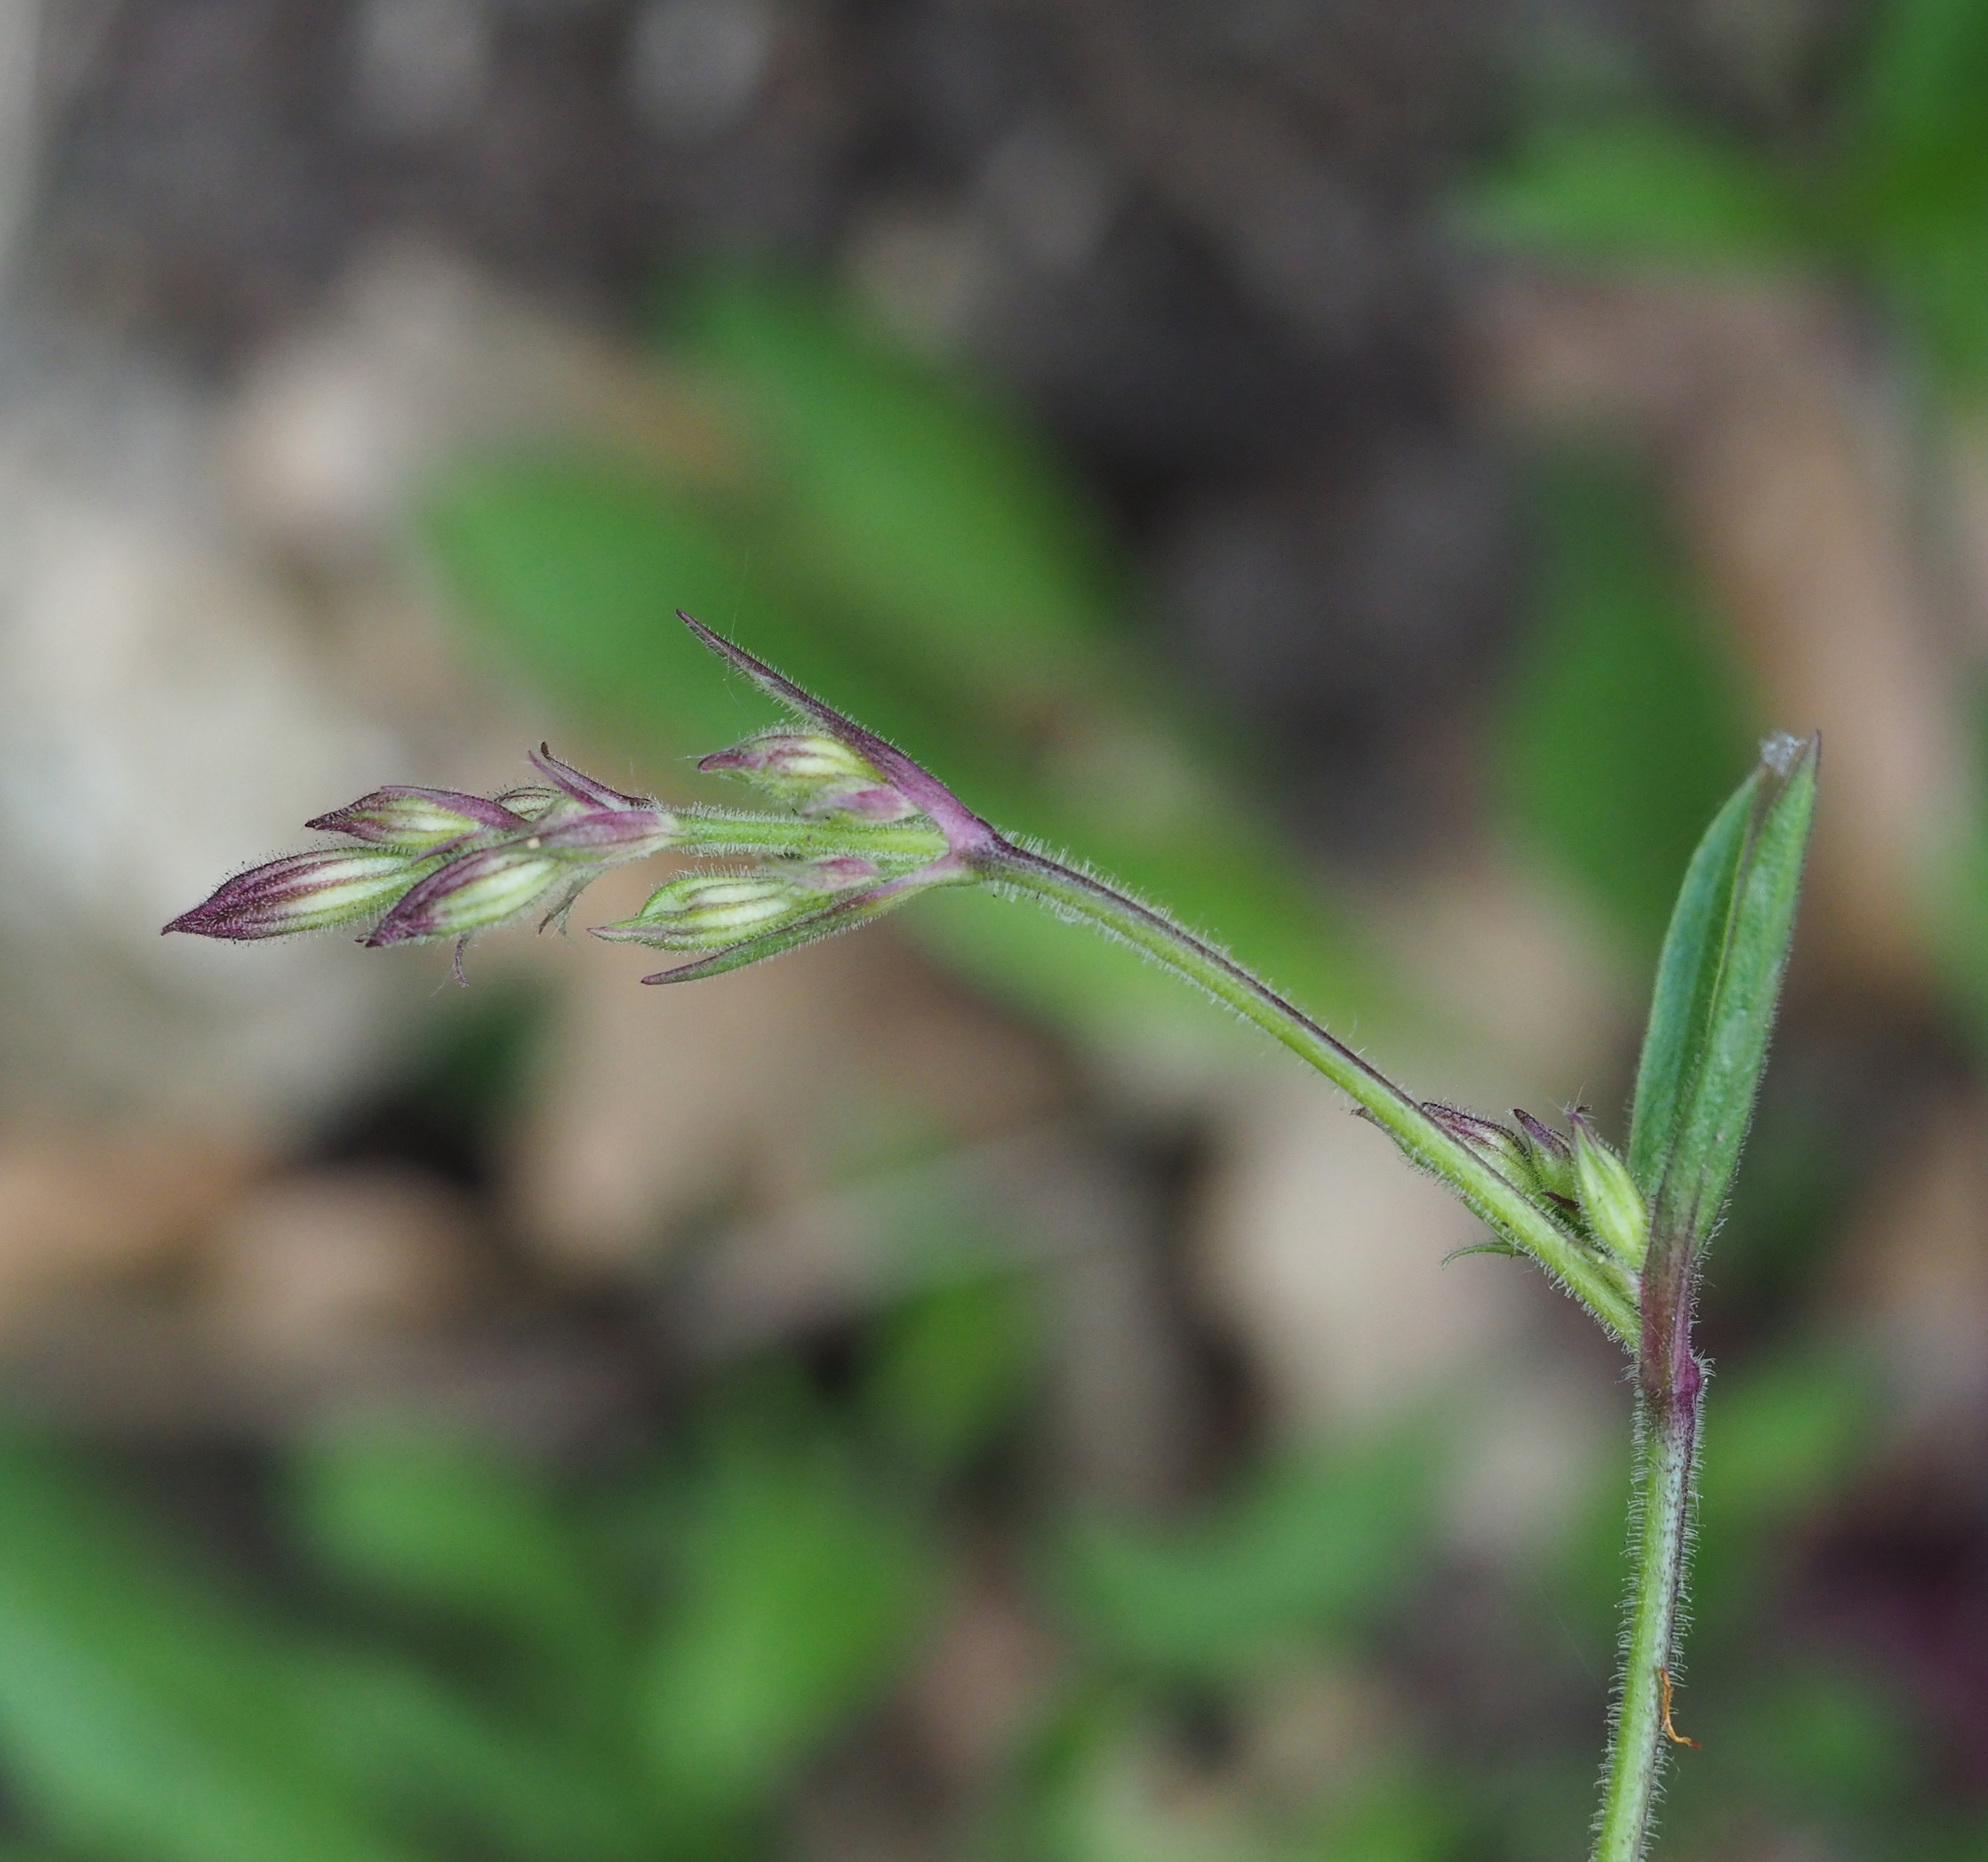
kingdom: Plantae
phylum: Tracheophyta
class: Magnoliopsida
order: Caryophyllales
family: Caryophyllaceae
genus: Silene
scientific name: Silene nutans
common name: Nottingham catchfly
